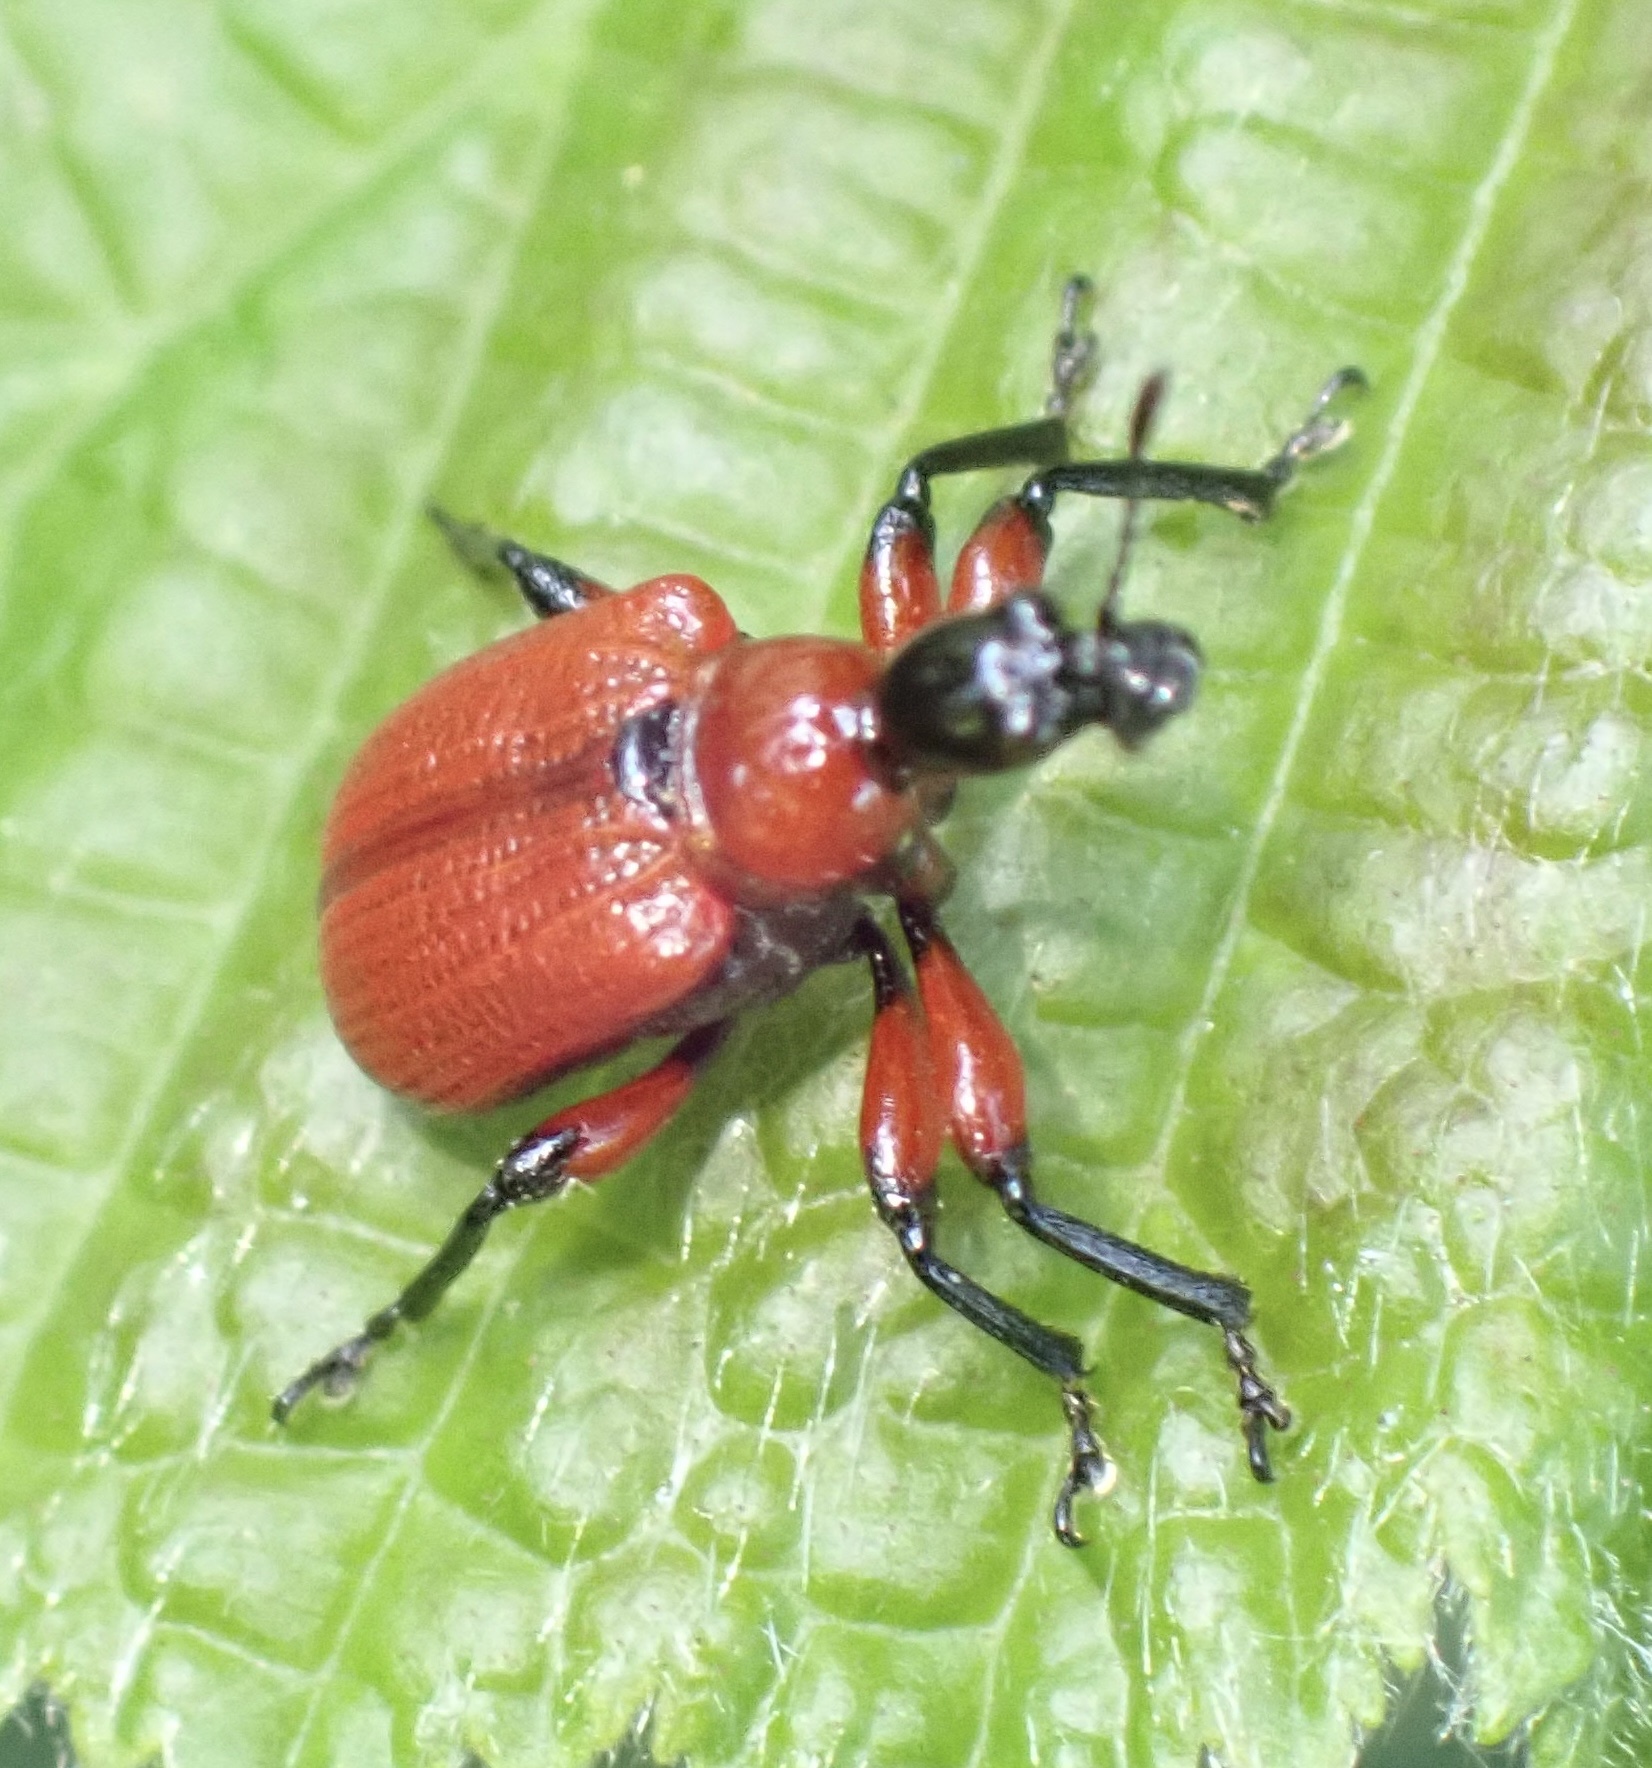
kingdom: Animalia
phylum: Arthropoda
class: Insecta
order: Coleoptera
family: Attelabidae
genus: Apoderus
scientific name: Apoderus coryli
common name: Hazel leaf roller
